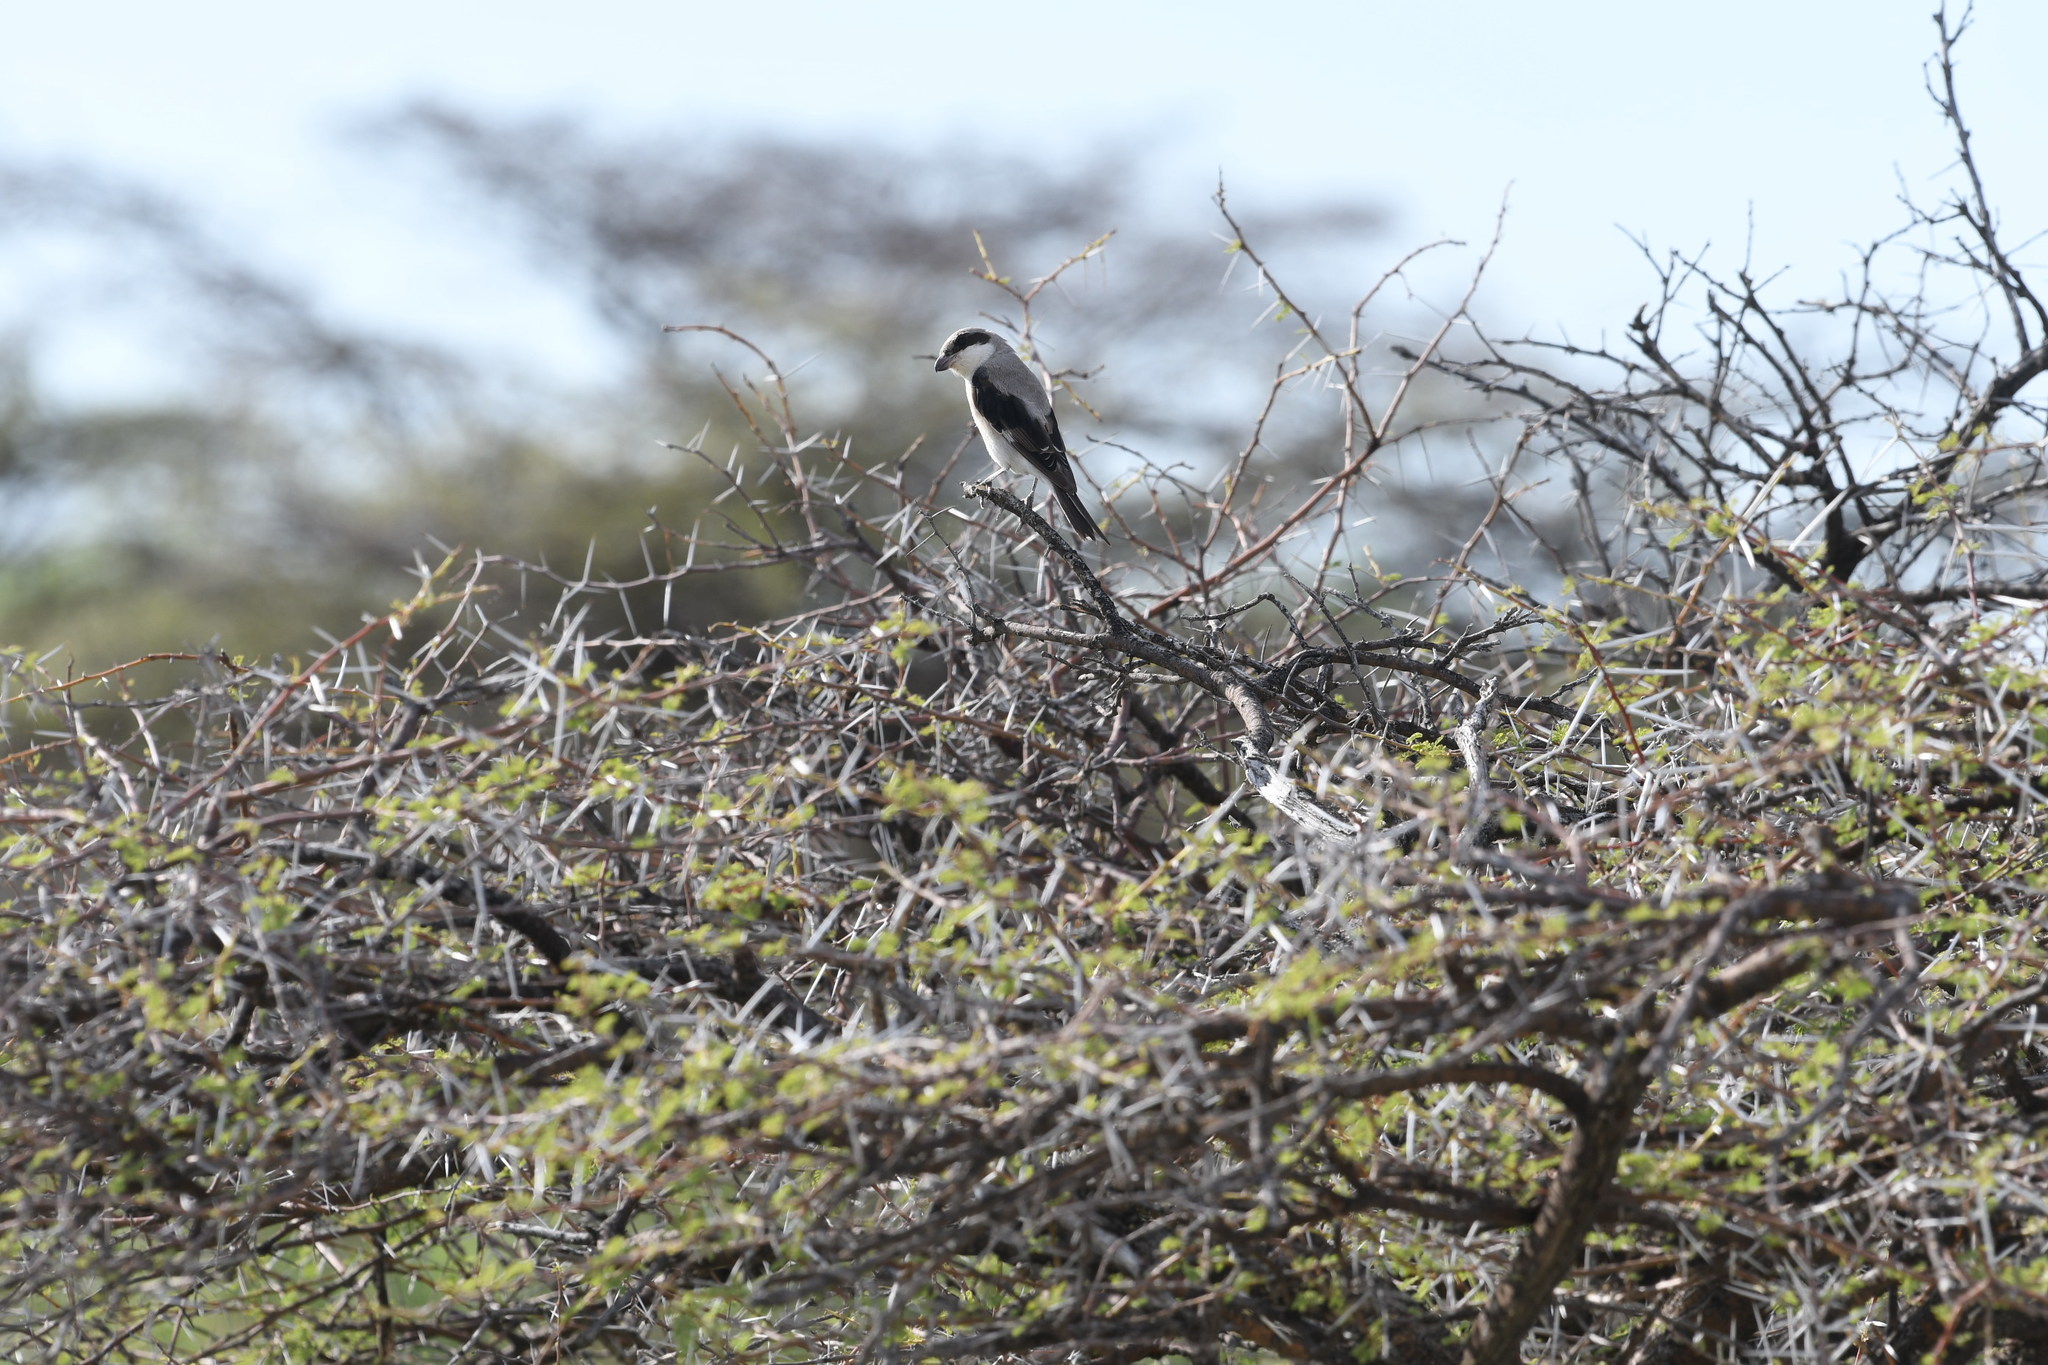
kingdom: Animalia
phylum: Chordata
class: Aves
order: Passeriformes
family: Laniidae
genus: Lanius
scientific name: Lanius minor
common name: Lesser grey shrike
